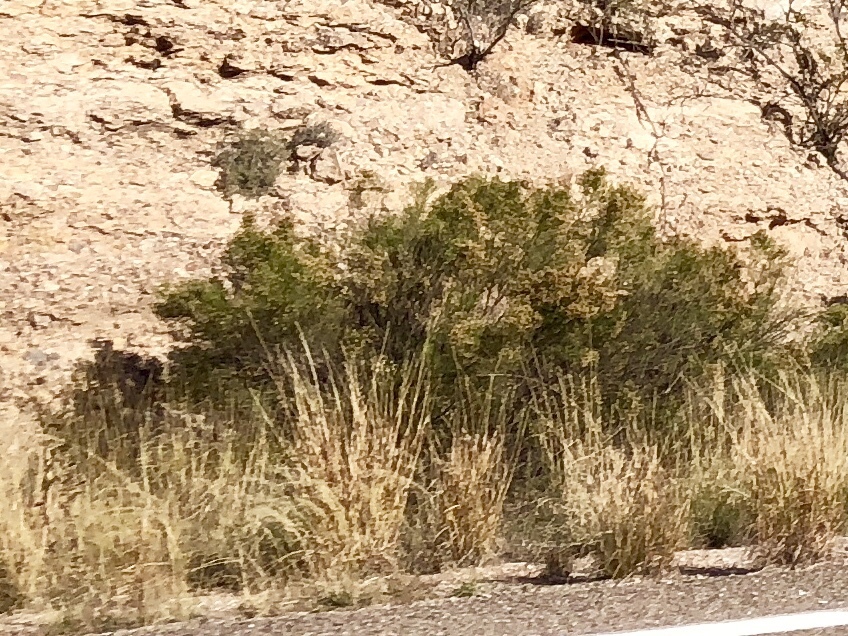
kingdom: Plantae
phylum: Tracheophyta
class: Magnoliopsida
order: Zygophyllales
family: Zygophyllaceae
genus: Larrea
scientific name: Larrea tridentata
